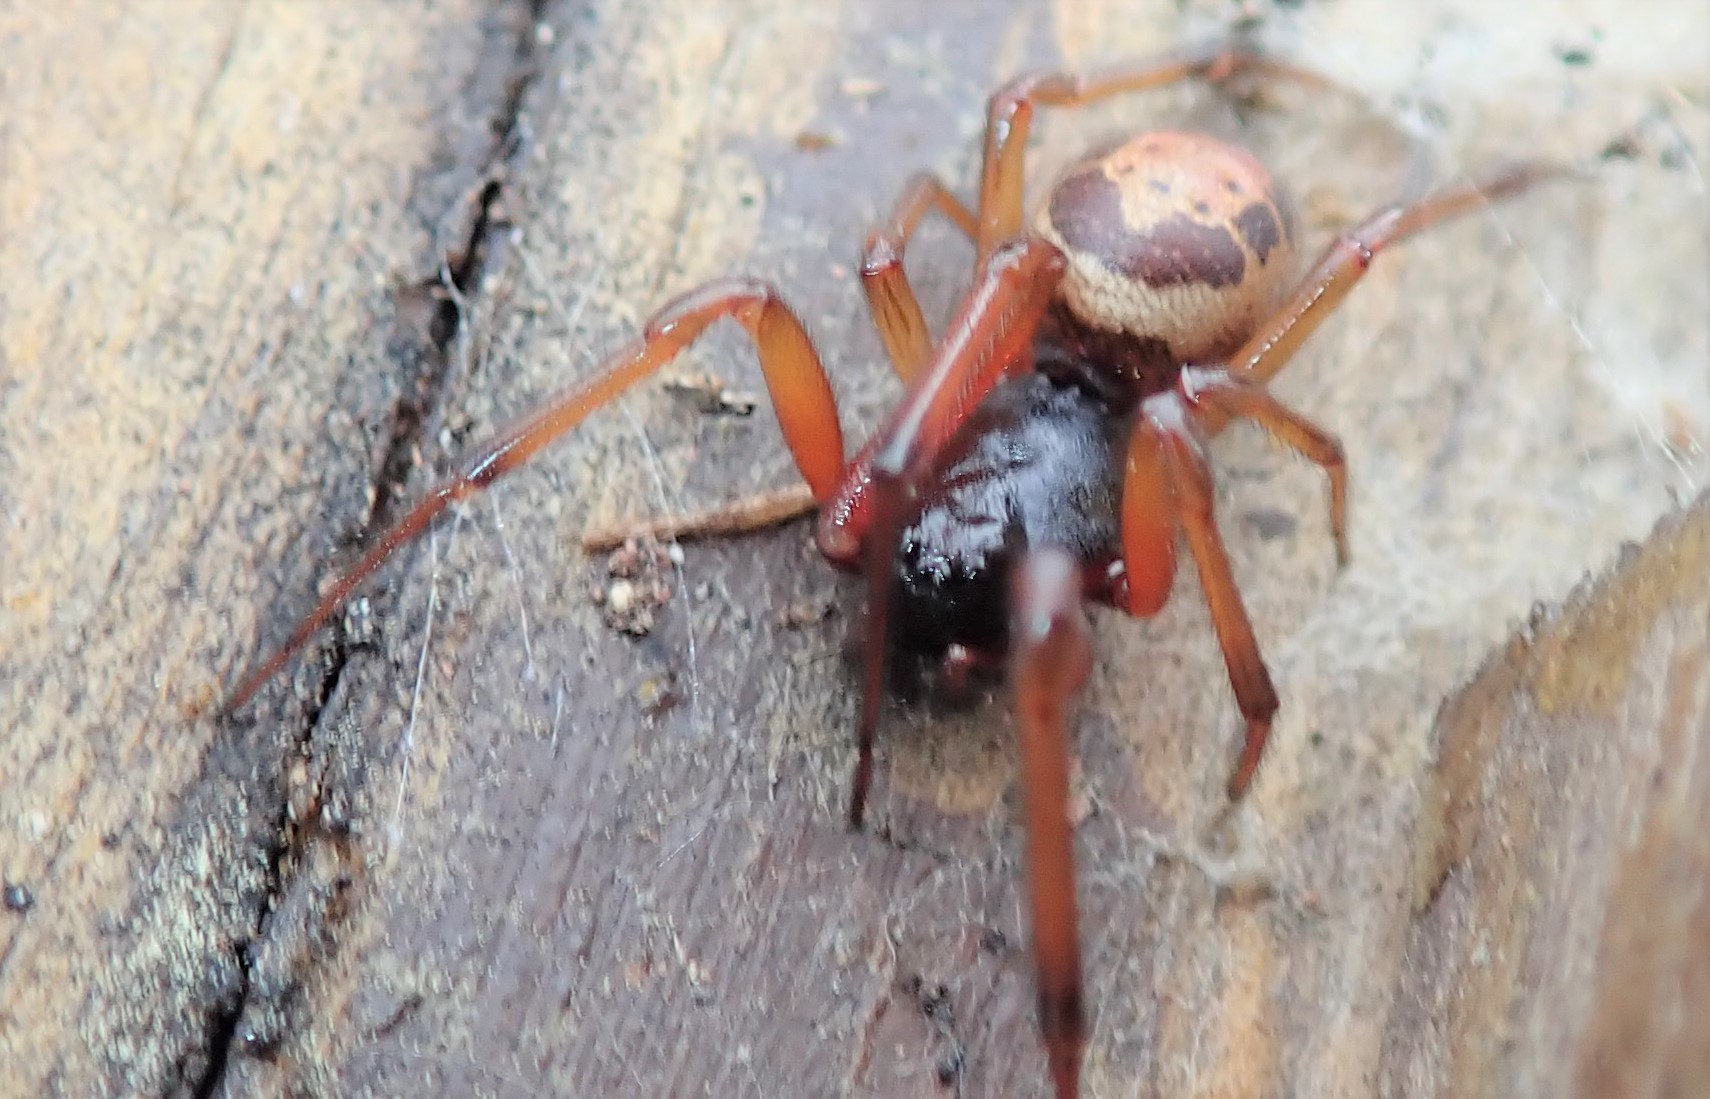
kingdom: Animalia
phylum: Arthropoda
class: Arachnida
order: Araneae
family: Theridiidae
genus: Steatoda
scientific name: Steatoda nobilis
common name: Cobweb weaver
